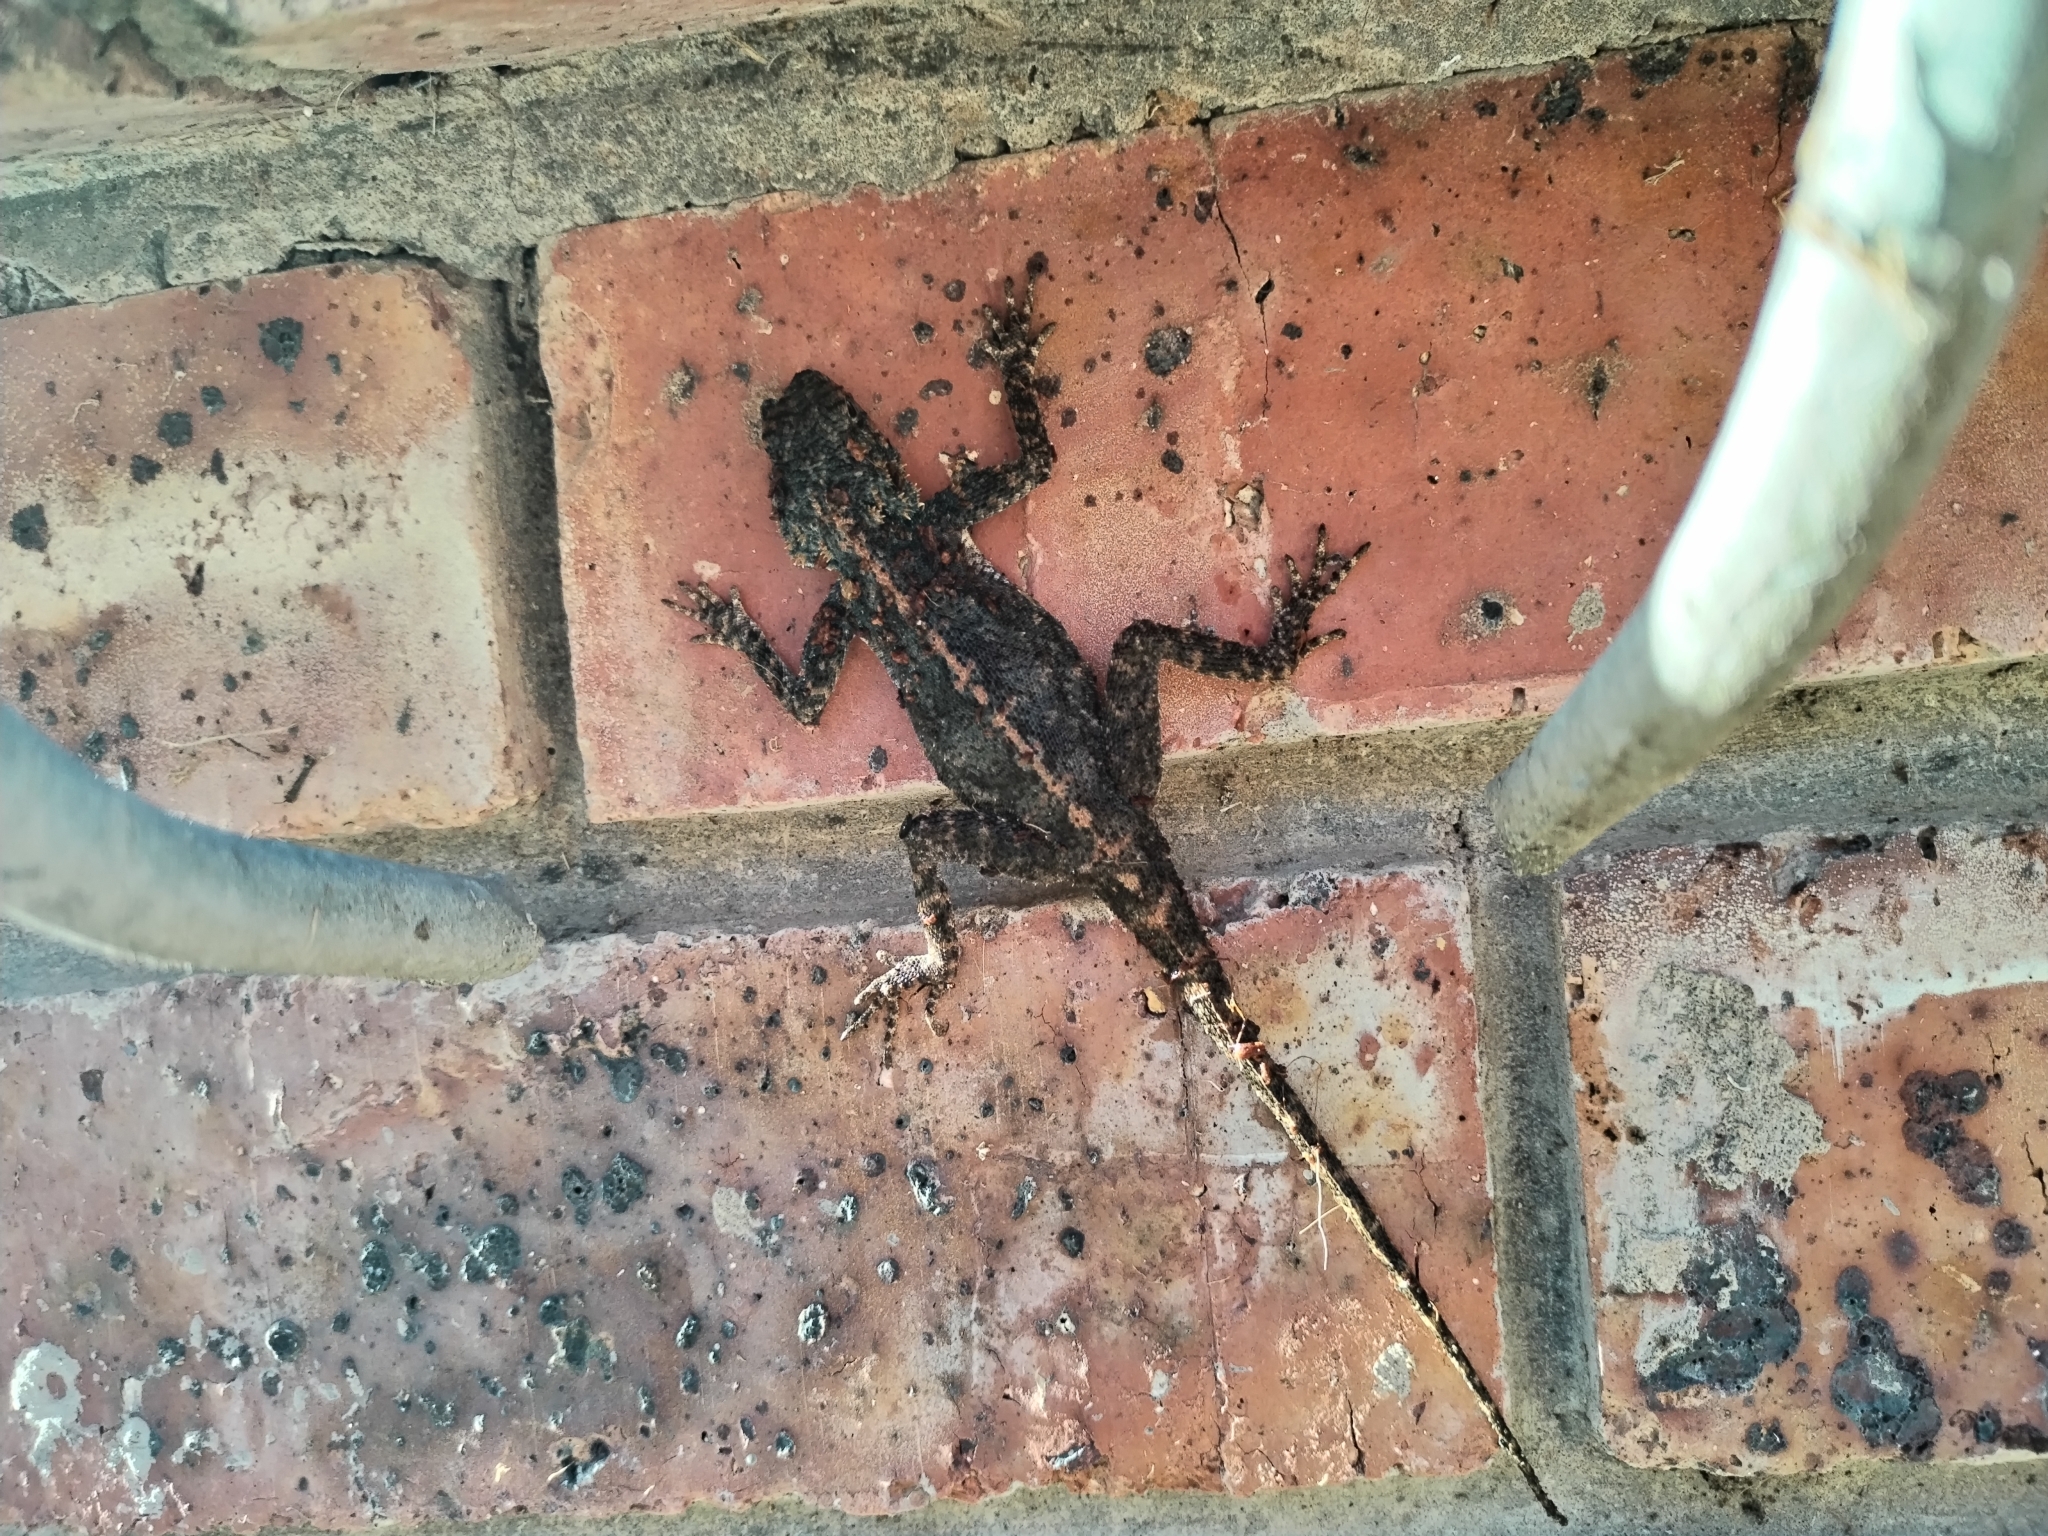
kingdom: Animalia
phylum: Chordata
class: Squamata
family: Agamidae
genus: Agama
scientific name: Agama atra
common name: Southern african rock agama
